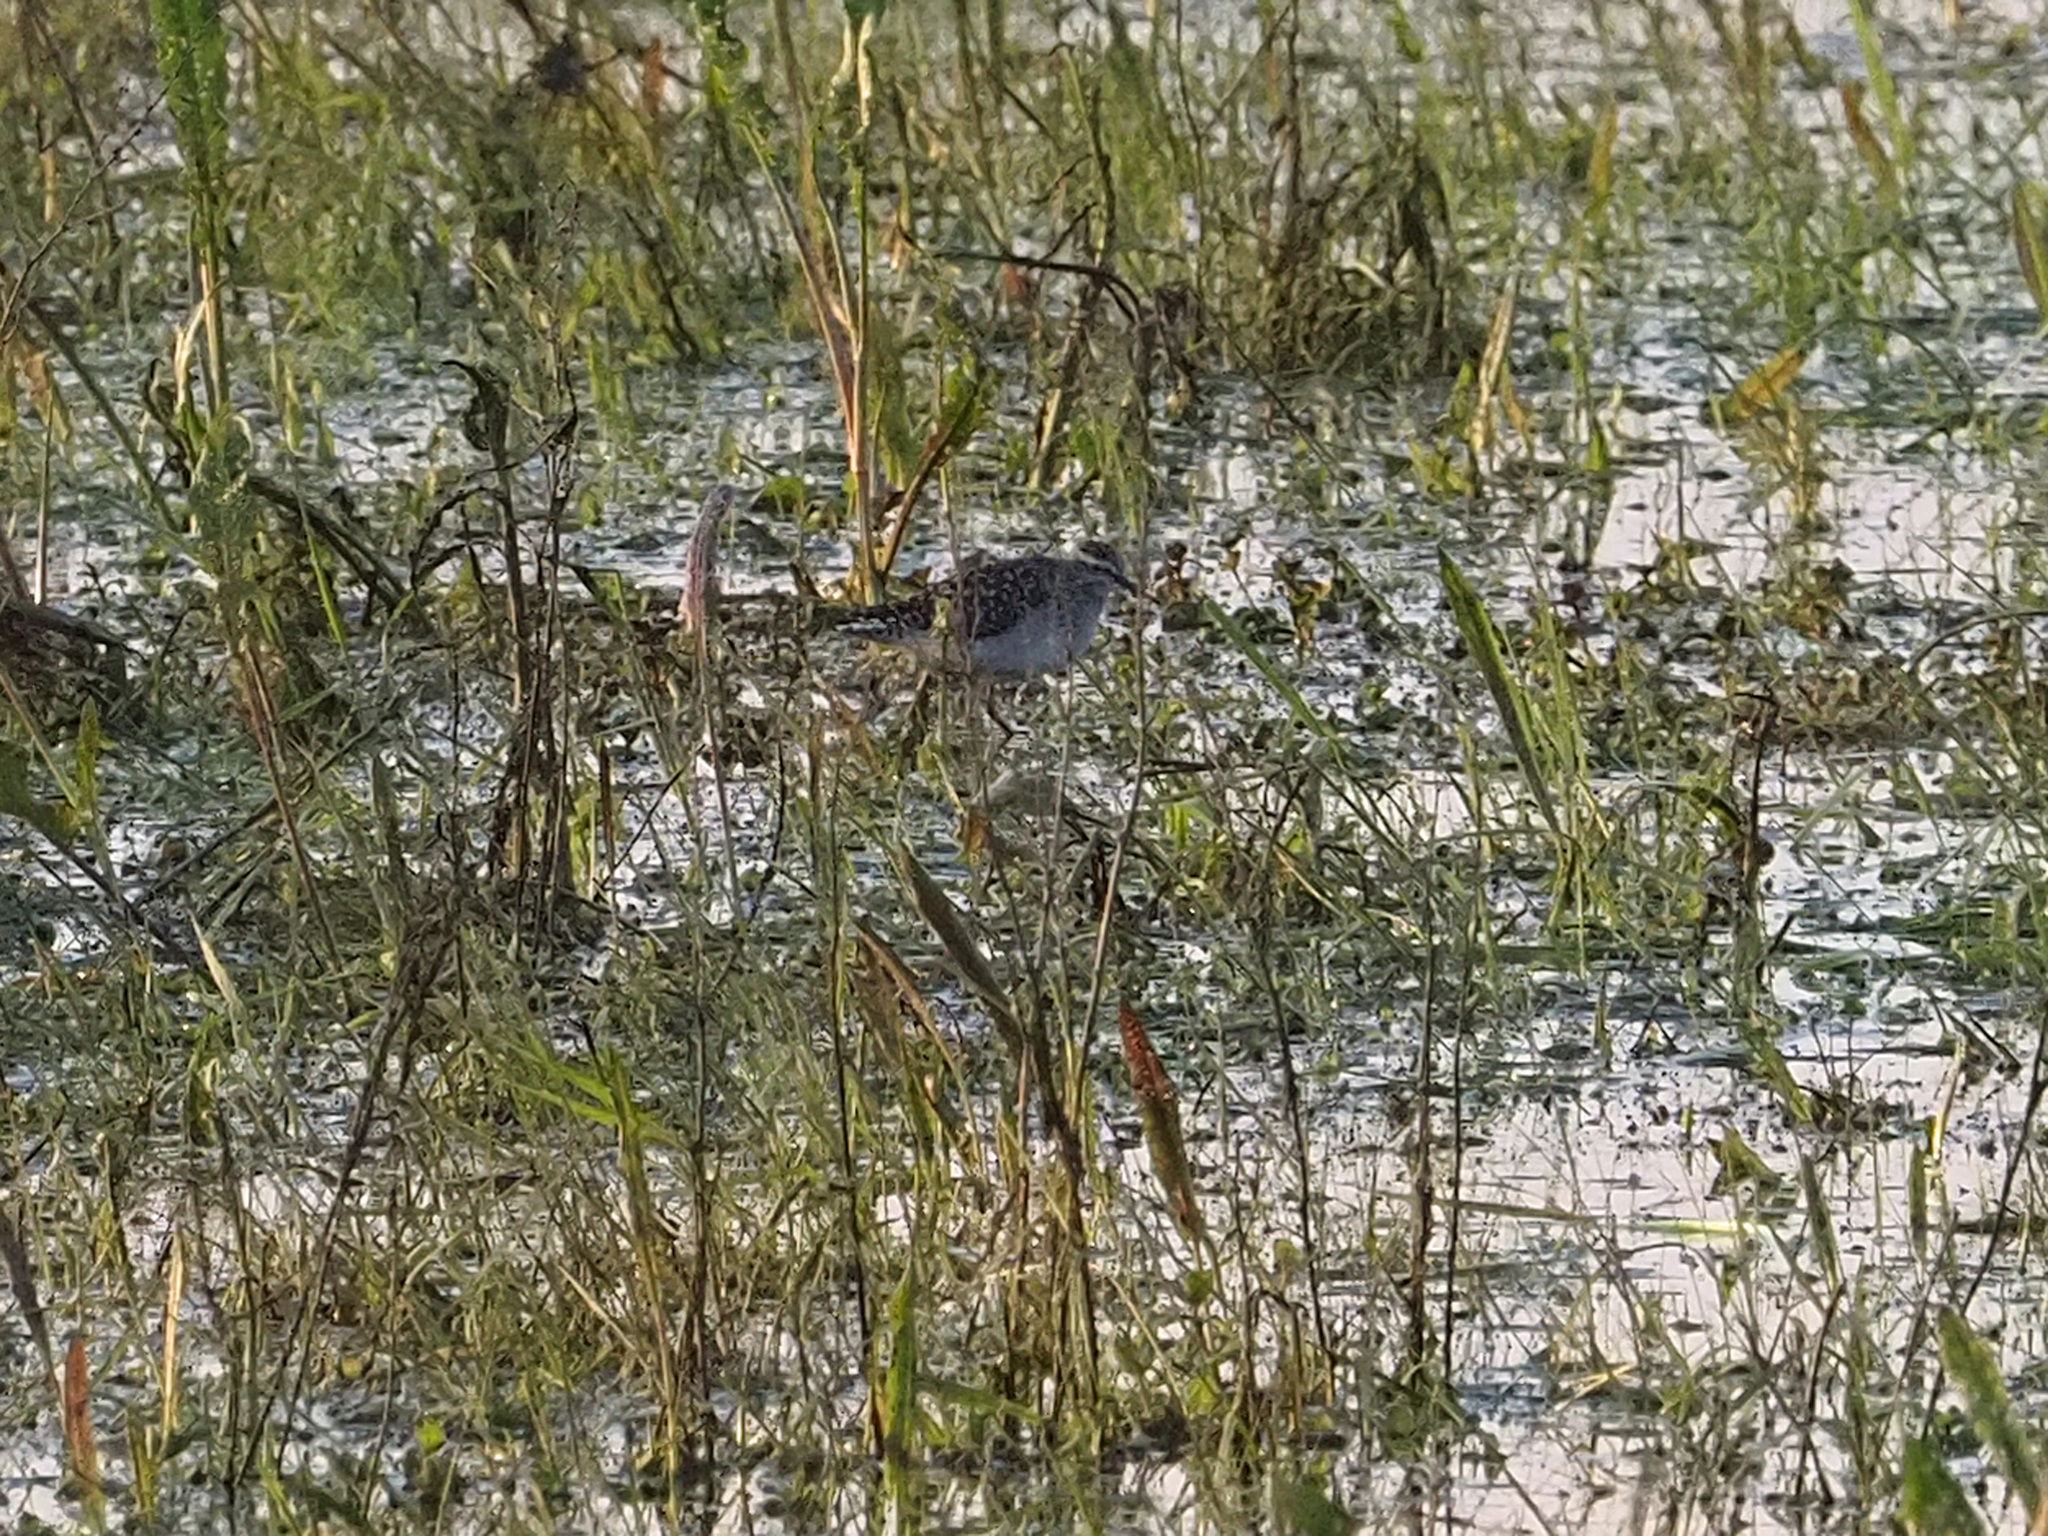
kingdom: Animalia
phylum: Chordata
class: Aves
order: Charadriiformes
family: Scolopacidae
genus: Tringa
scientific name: Tringa glareola
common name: Wood sandpiper
